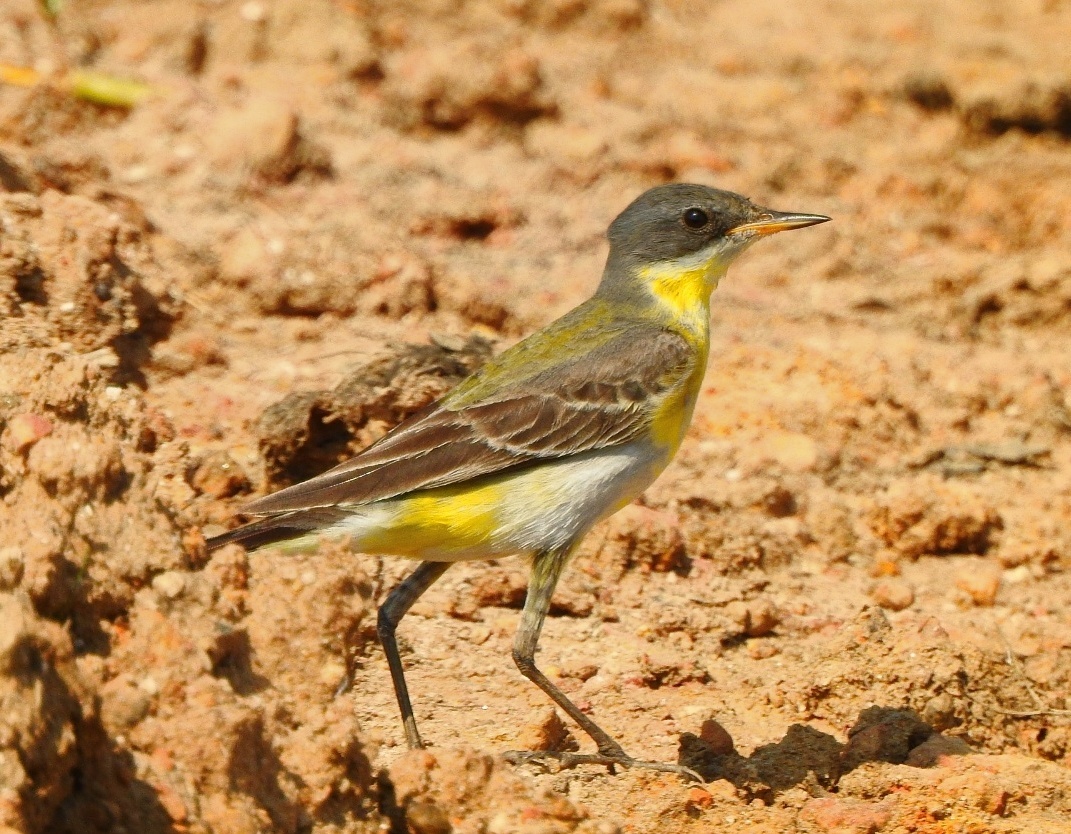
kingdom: Animalia
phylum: Chordata
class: Aves
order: Passeriformes
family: Motacillidae
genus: Motacilla
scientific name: Motacilla flava
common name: Western yellow wagtail
